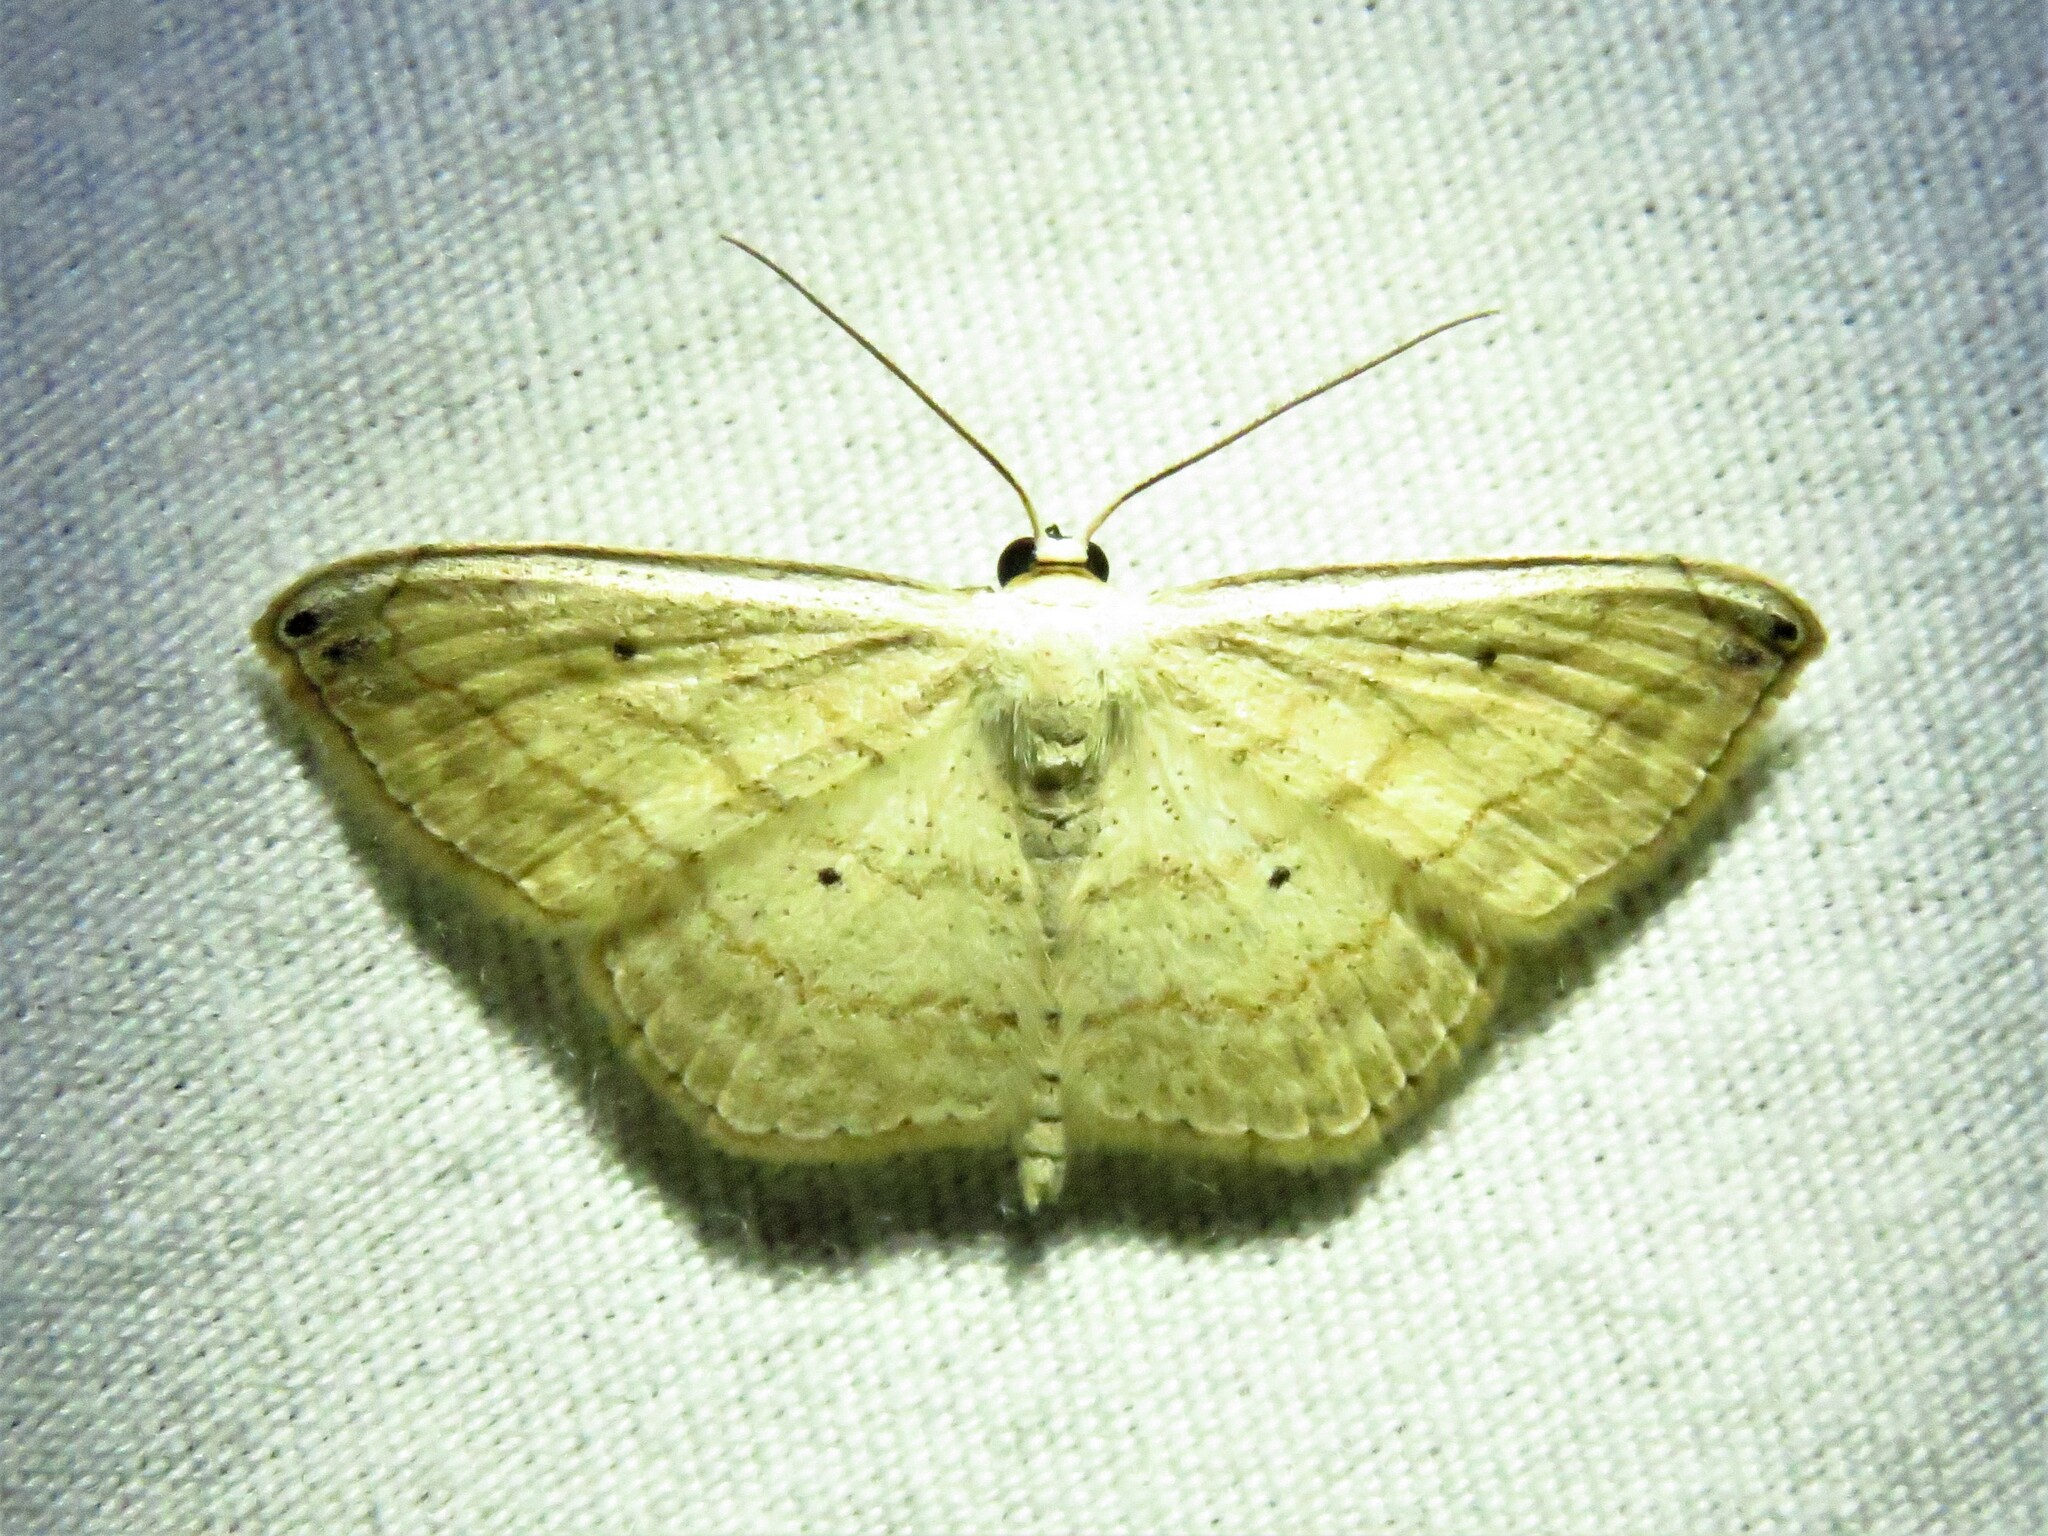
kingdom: Animalia
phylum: Arthropoda
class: Insecta
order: Lepidoptera
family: Geometridae
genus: Scopula
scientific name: Scopula umbilicata
